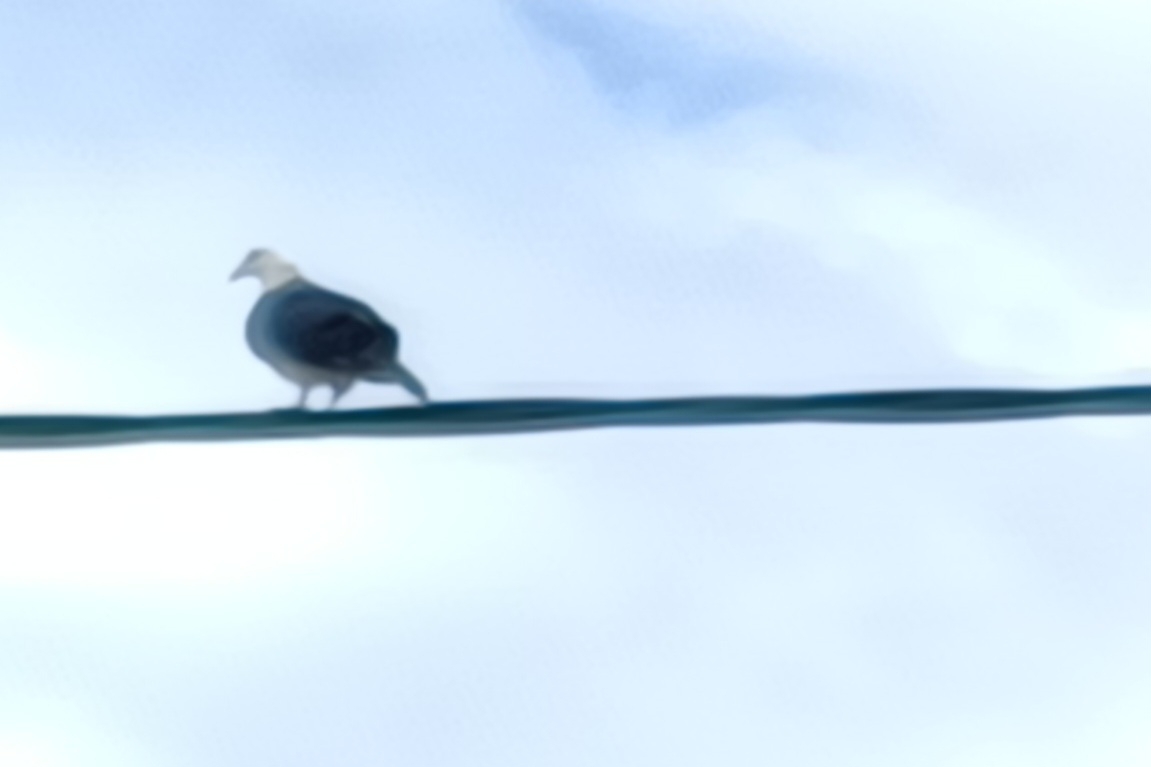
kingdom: Animalia
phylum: Chordata
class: Aves
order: Columbiformes
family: Columbidae
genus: Columba
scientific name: Columba leucomela
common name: White-headed pigeon
